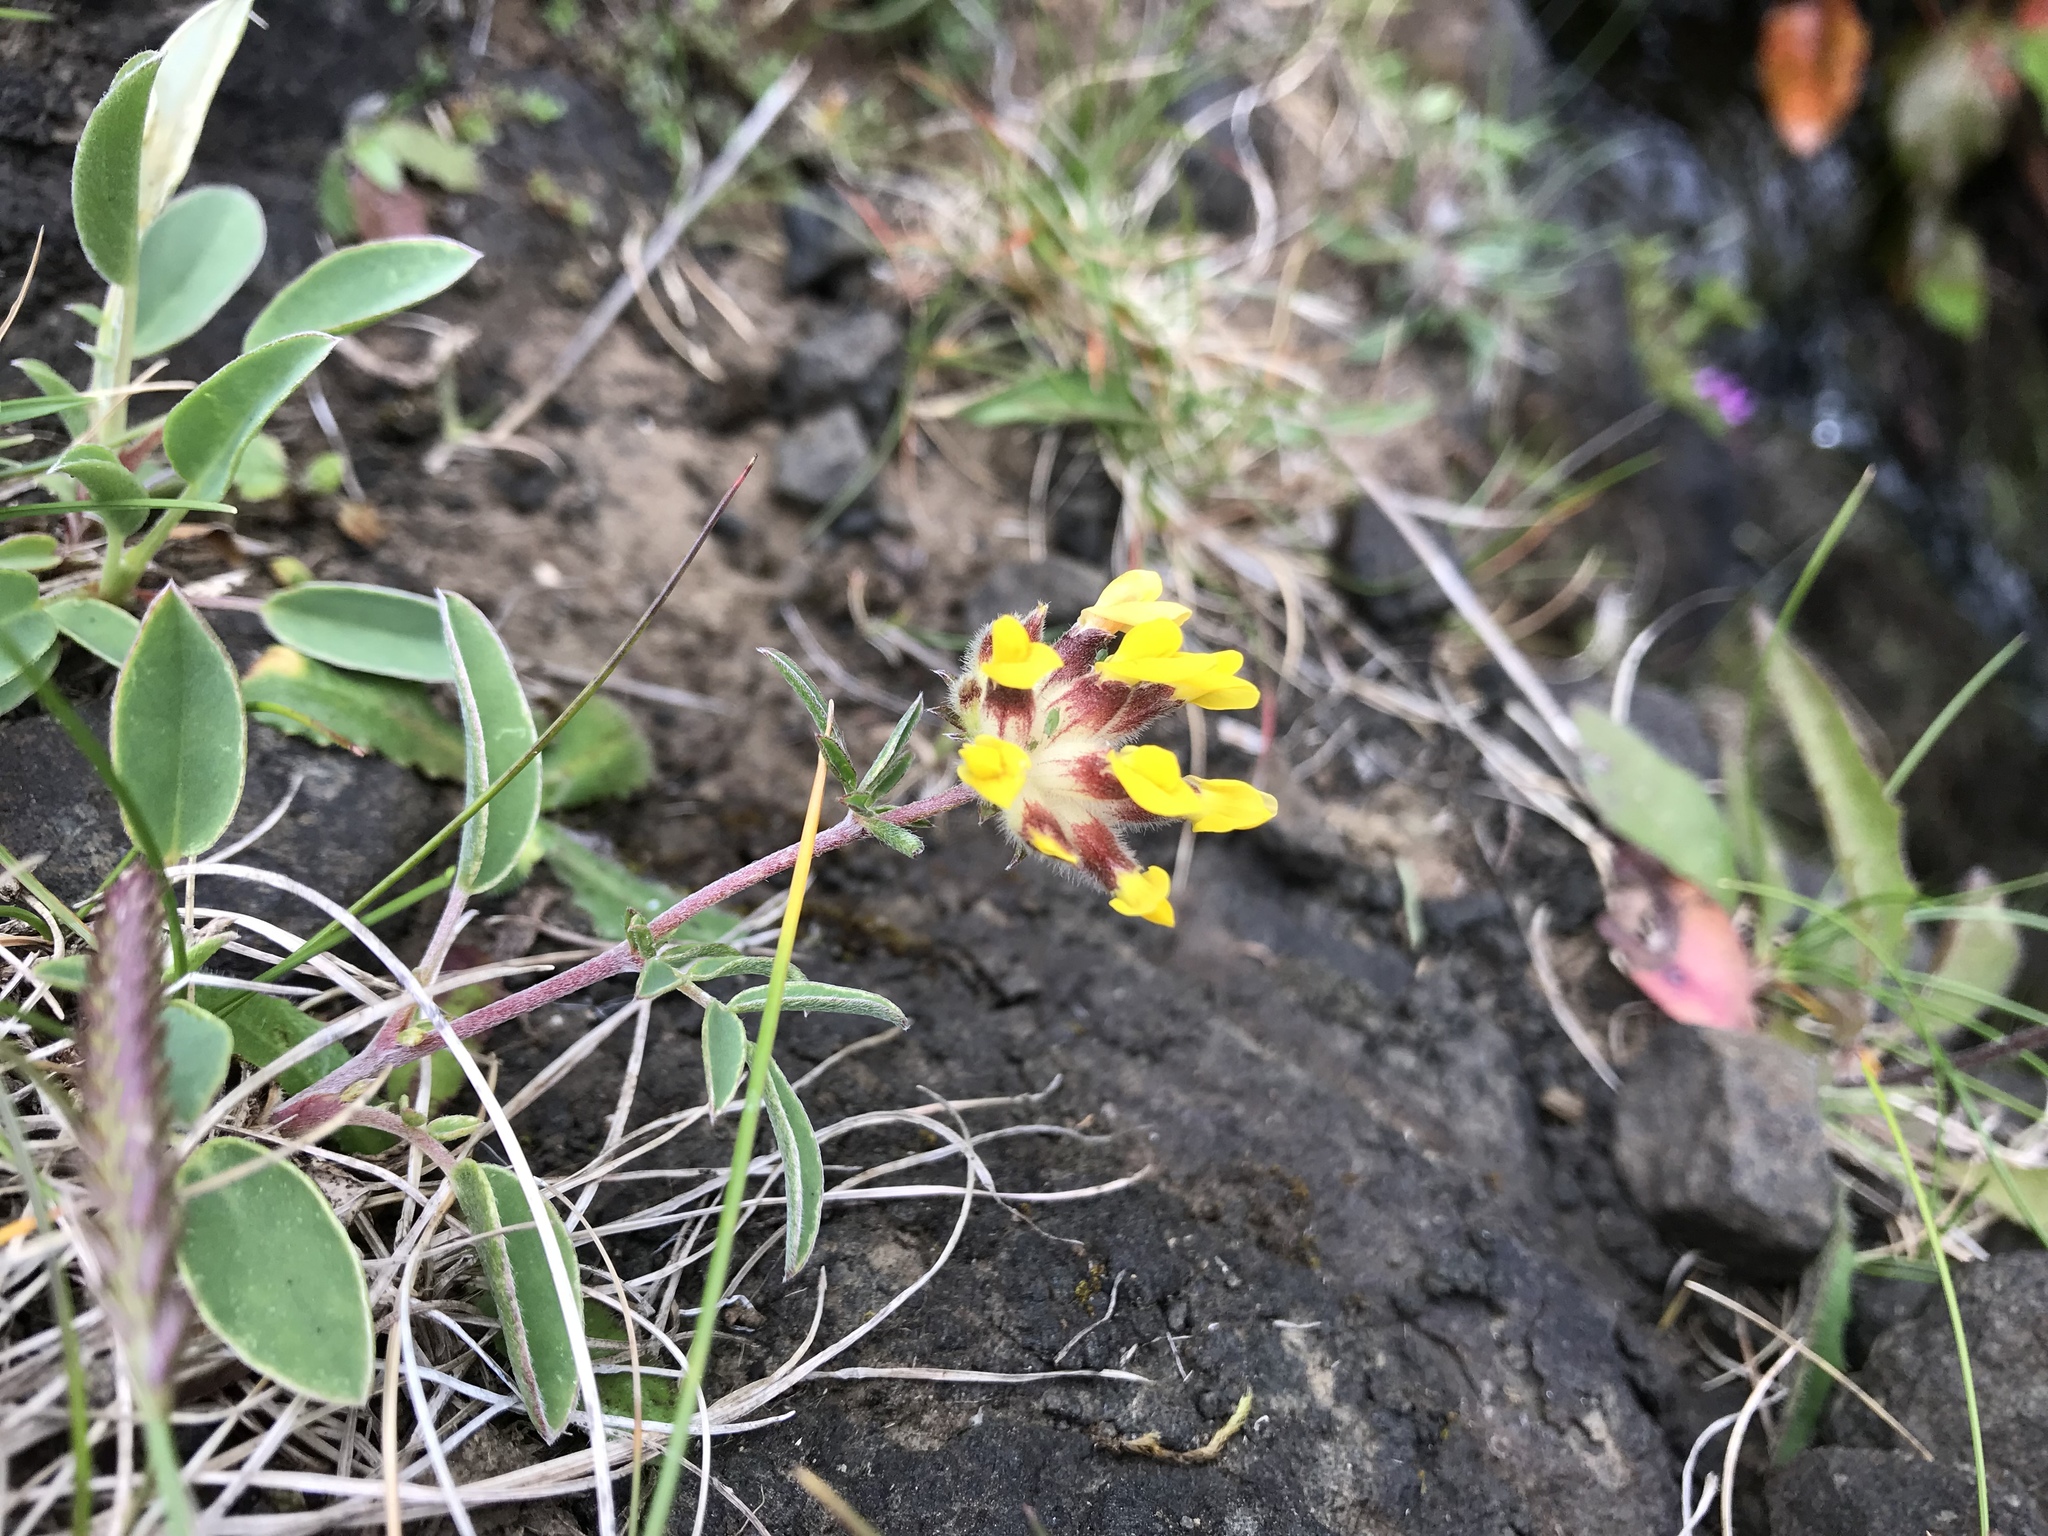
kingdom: Plantae
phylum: Tracheophyta
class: Magnoliopsida
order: Fabales
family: Fabaceae
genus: Anthyllis
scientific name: Anthyllis vulneraria
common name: Kidney vetch
